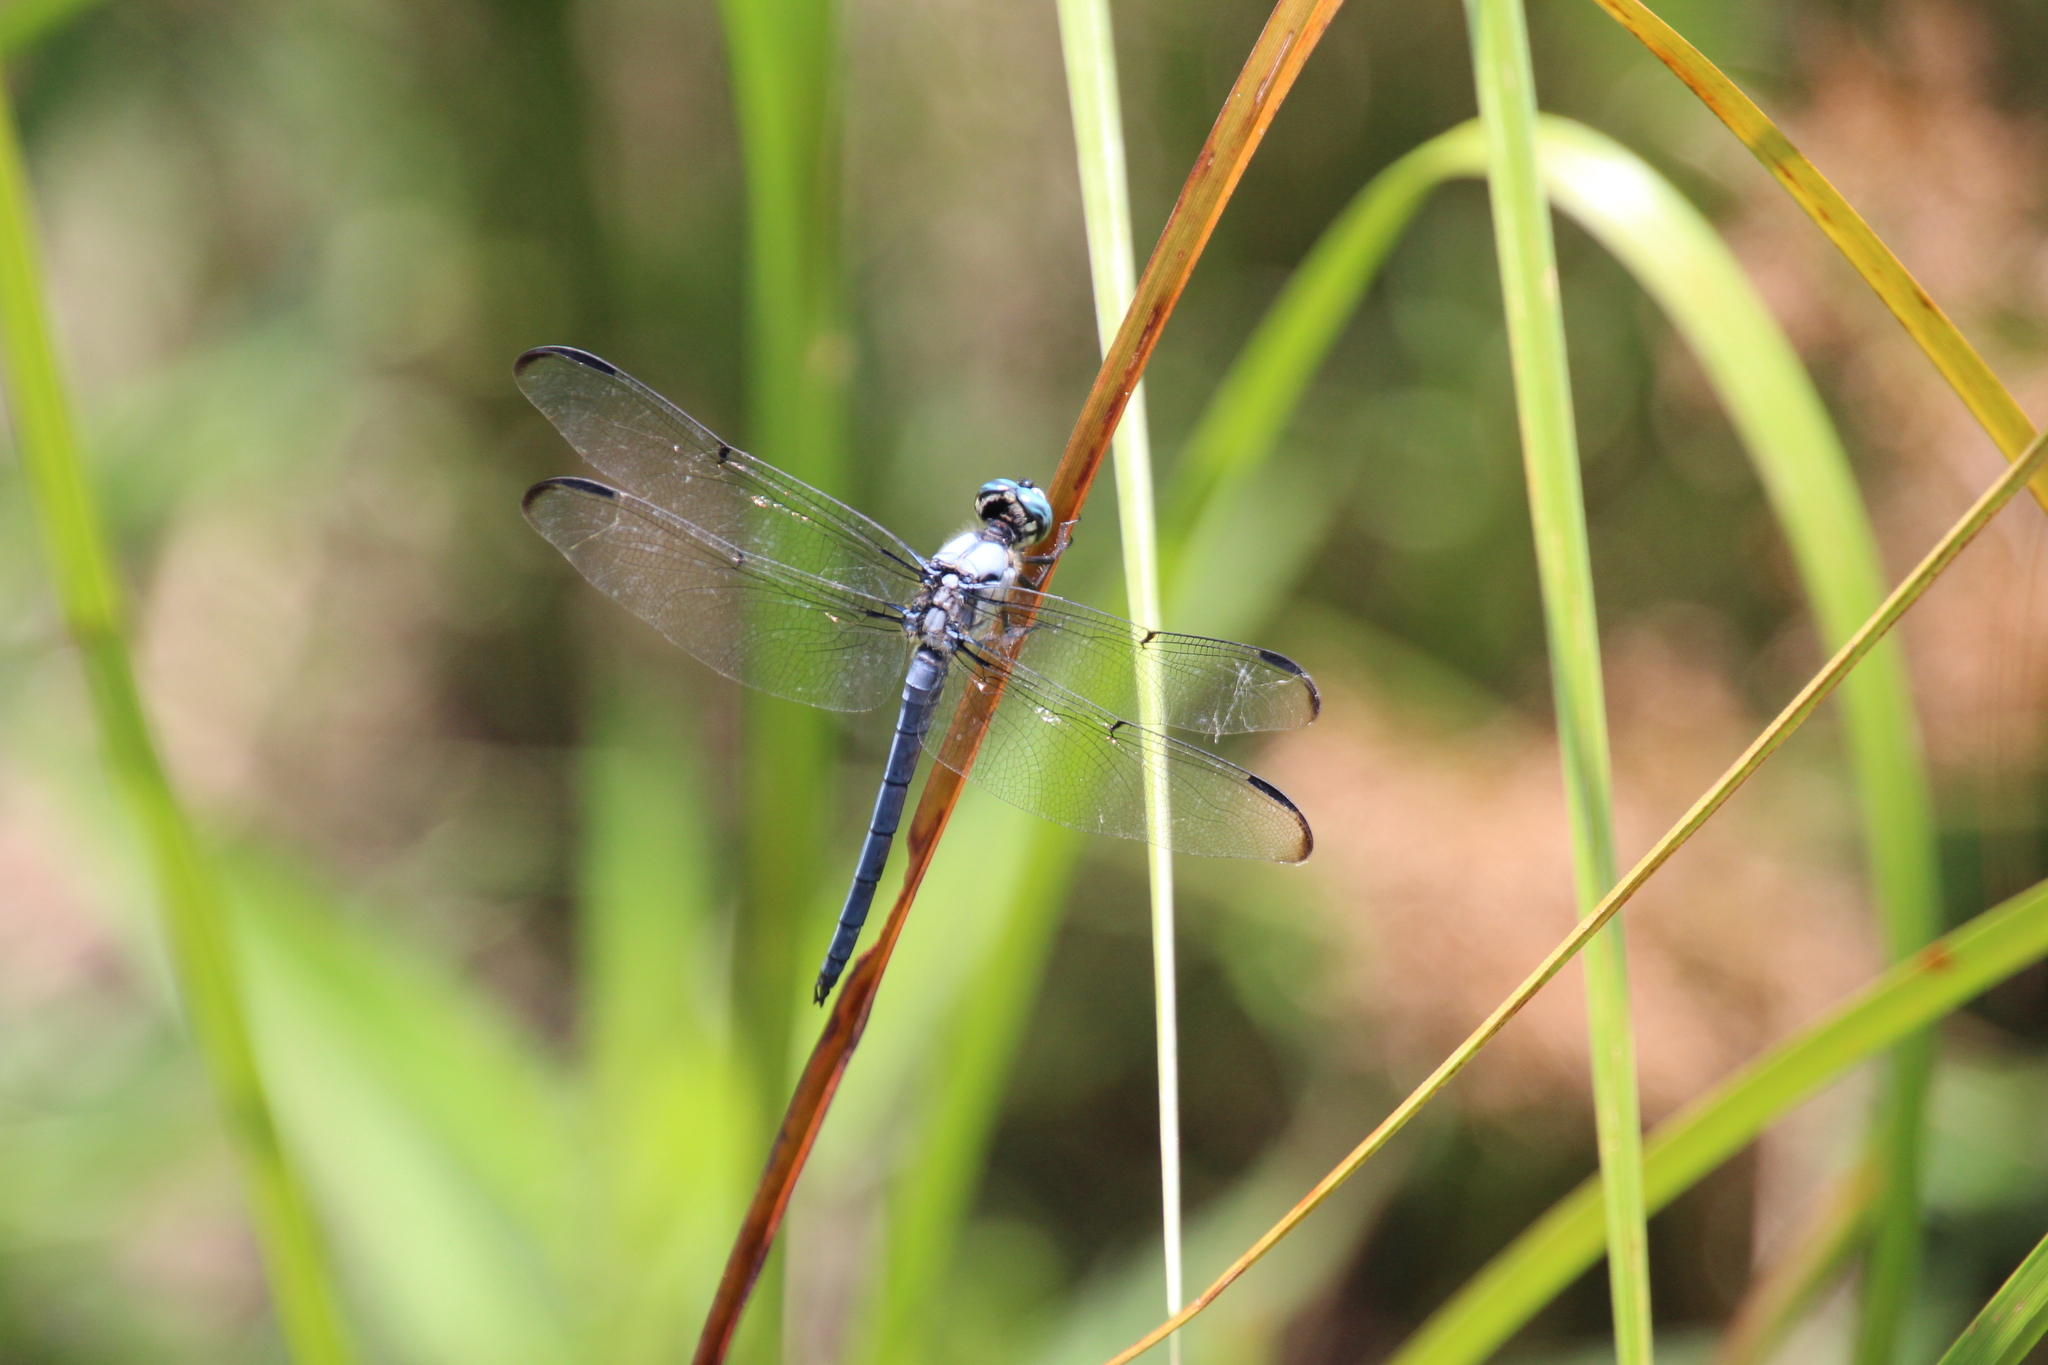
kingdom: Animalia
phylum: Arthropoda
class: Insecta
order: Odonata
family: Libellulidae
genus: Libellula
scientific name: Libellula vibrans
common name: Great blue skimmer
